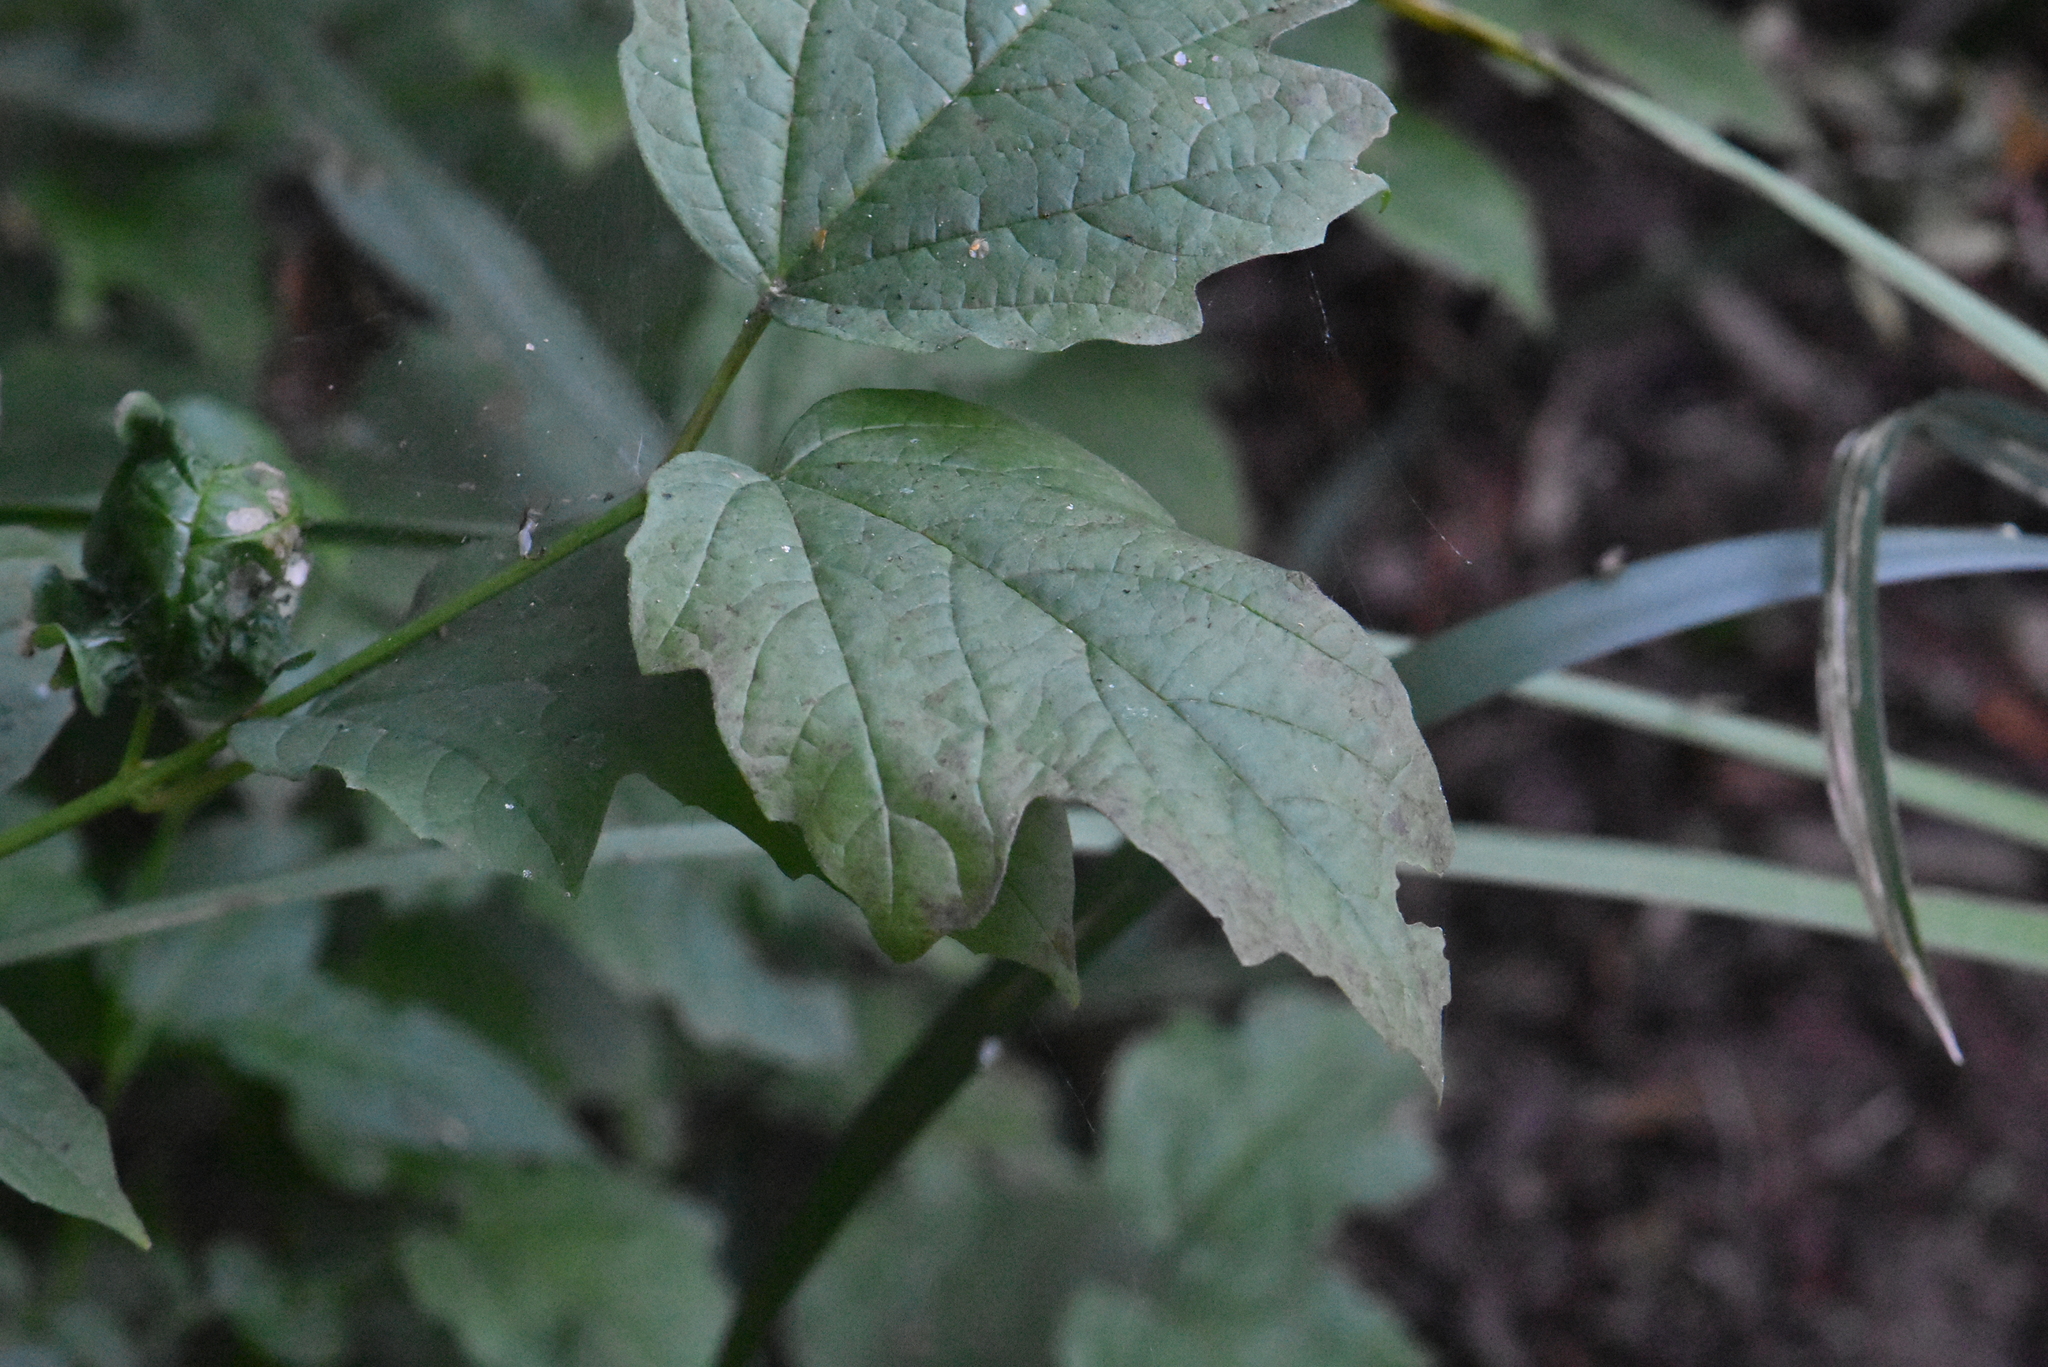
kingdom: Plantae
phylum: Tracheophyta
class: Magnoliopsida
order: Dipsacales
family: Viburnaceae
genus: Viburnum
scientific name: Viburnum opulus
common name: Guelder-rose
